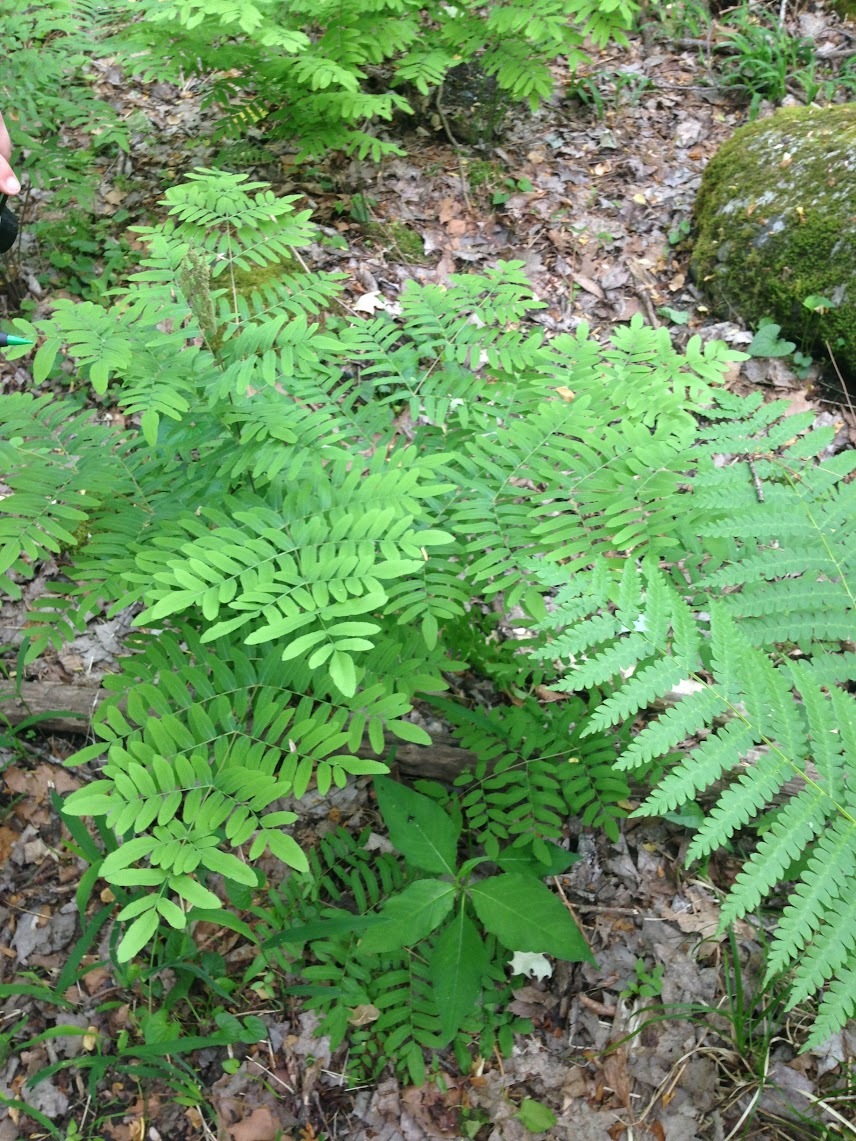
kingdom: Plantae
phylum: Tracheophyta
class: Polypodiopsida
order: Osmundales
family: Osmundaceae
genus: Osmunda
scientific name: Osmunda spectabilis
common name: American royal fern
